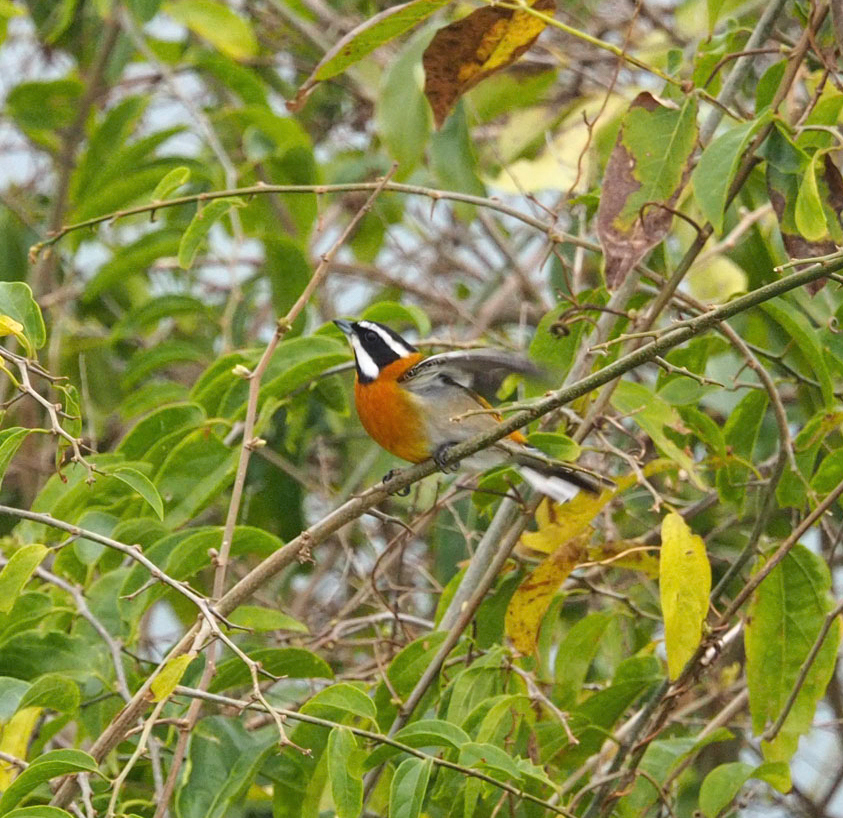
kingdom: Animalia
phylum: Chordata
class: Aves
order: Passeriformes
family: Spindalidae
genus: Spindalis
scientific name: Spindalis zena
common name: Western spindalis
